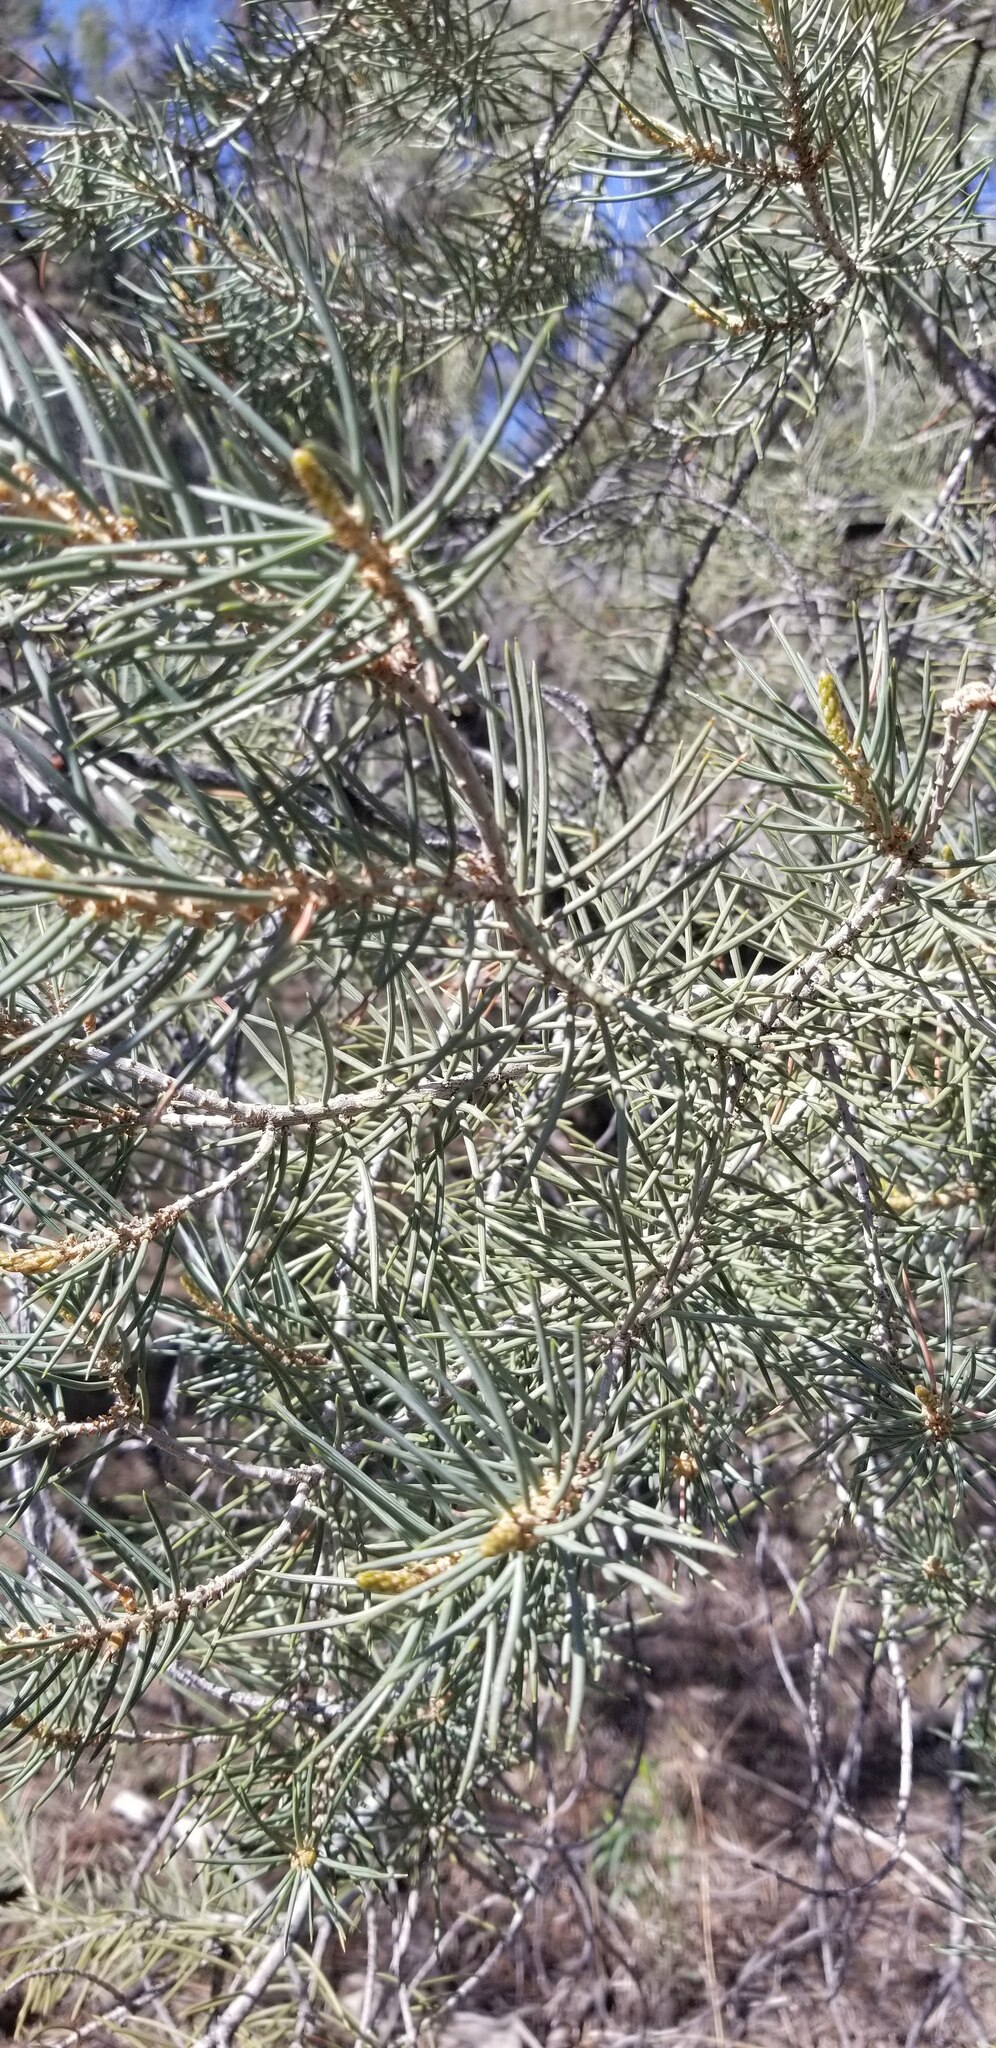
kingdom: Plantae
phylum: Tracheophyta
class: Pinopsida
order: Pinales
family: Pinaceae
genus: Pinus
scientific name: Pinus monophylla
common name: One-leaved nut pine
